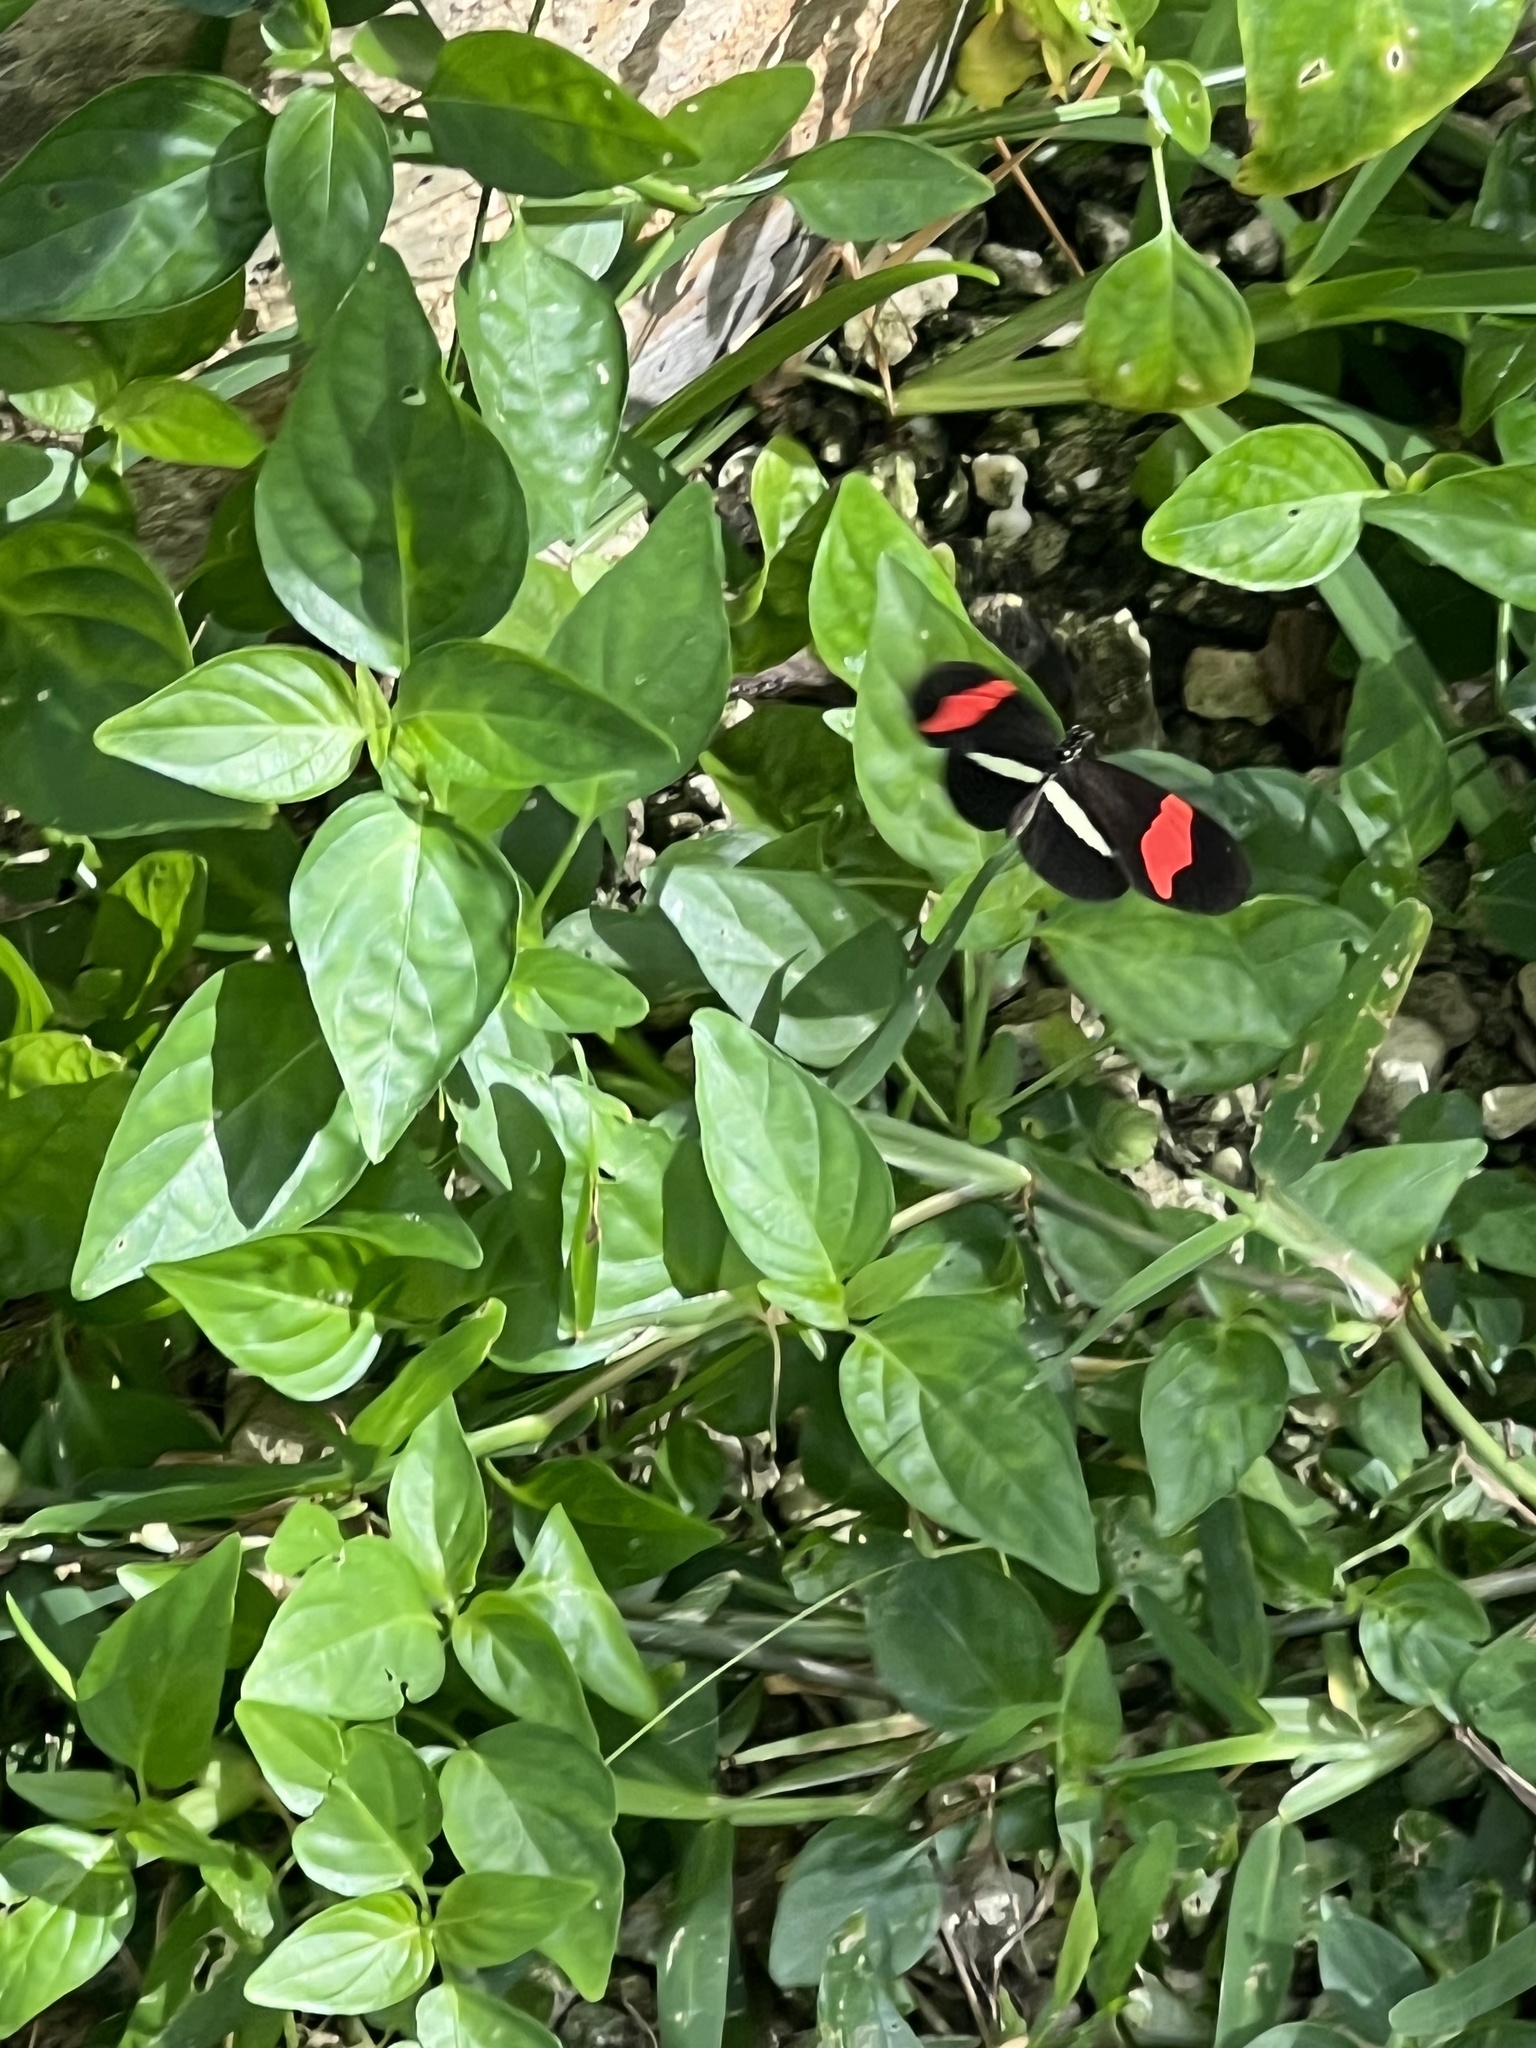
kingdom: Animalia
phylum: Arthropoda
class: Insecta
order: Lepidoptera
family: Nymphalidae
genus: Tirumala
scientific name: Tirumala petiverana
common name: Blue monarch
